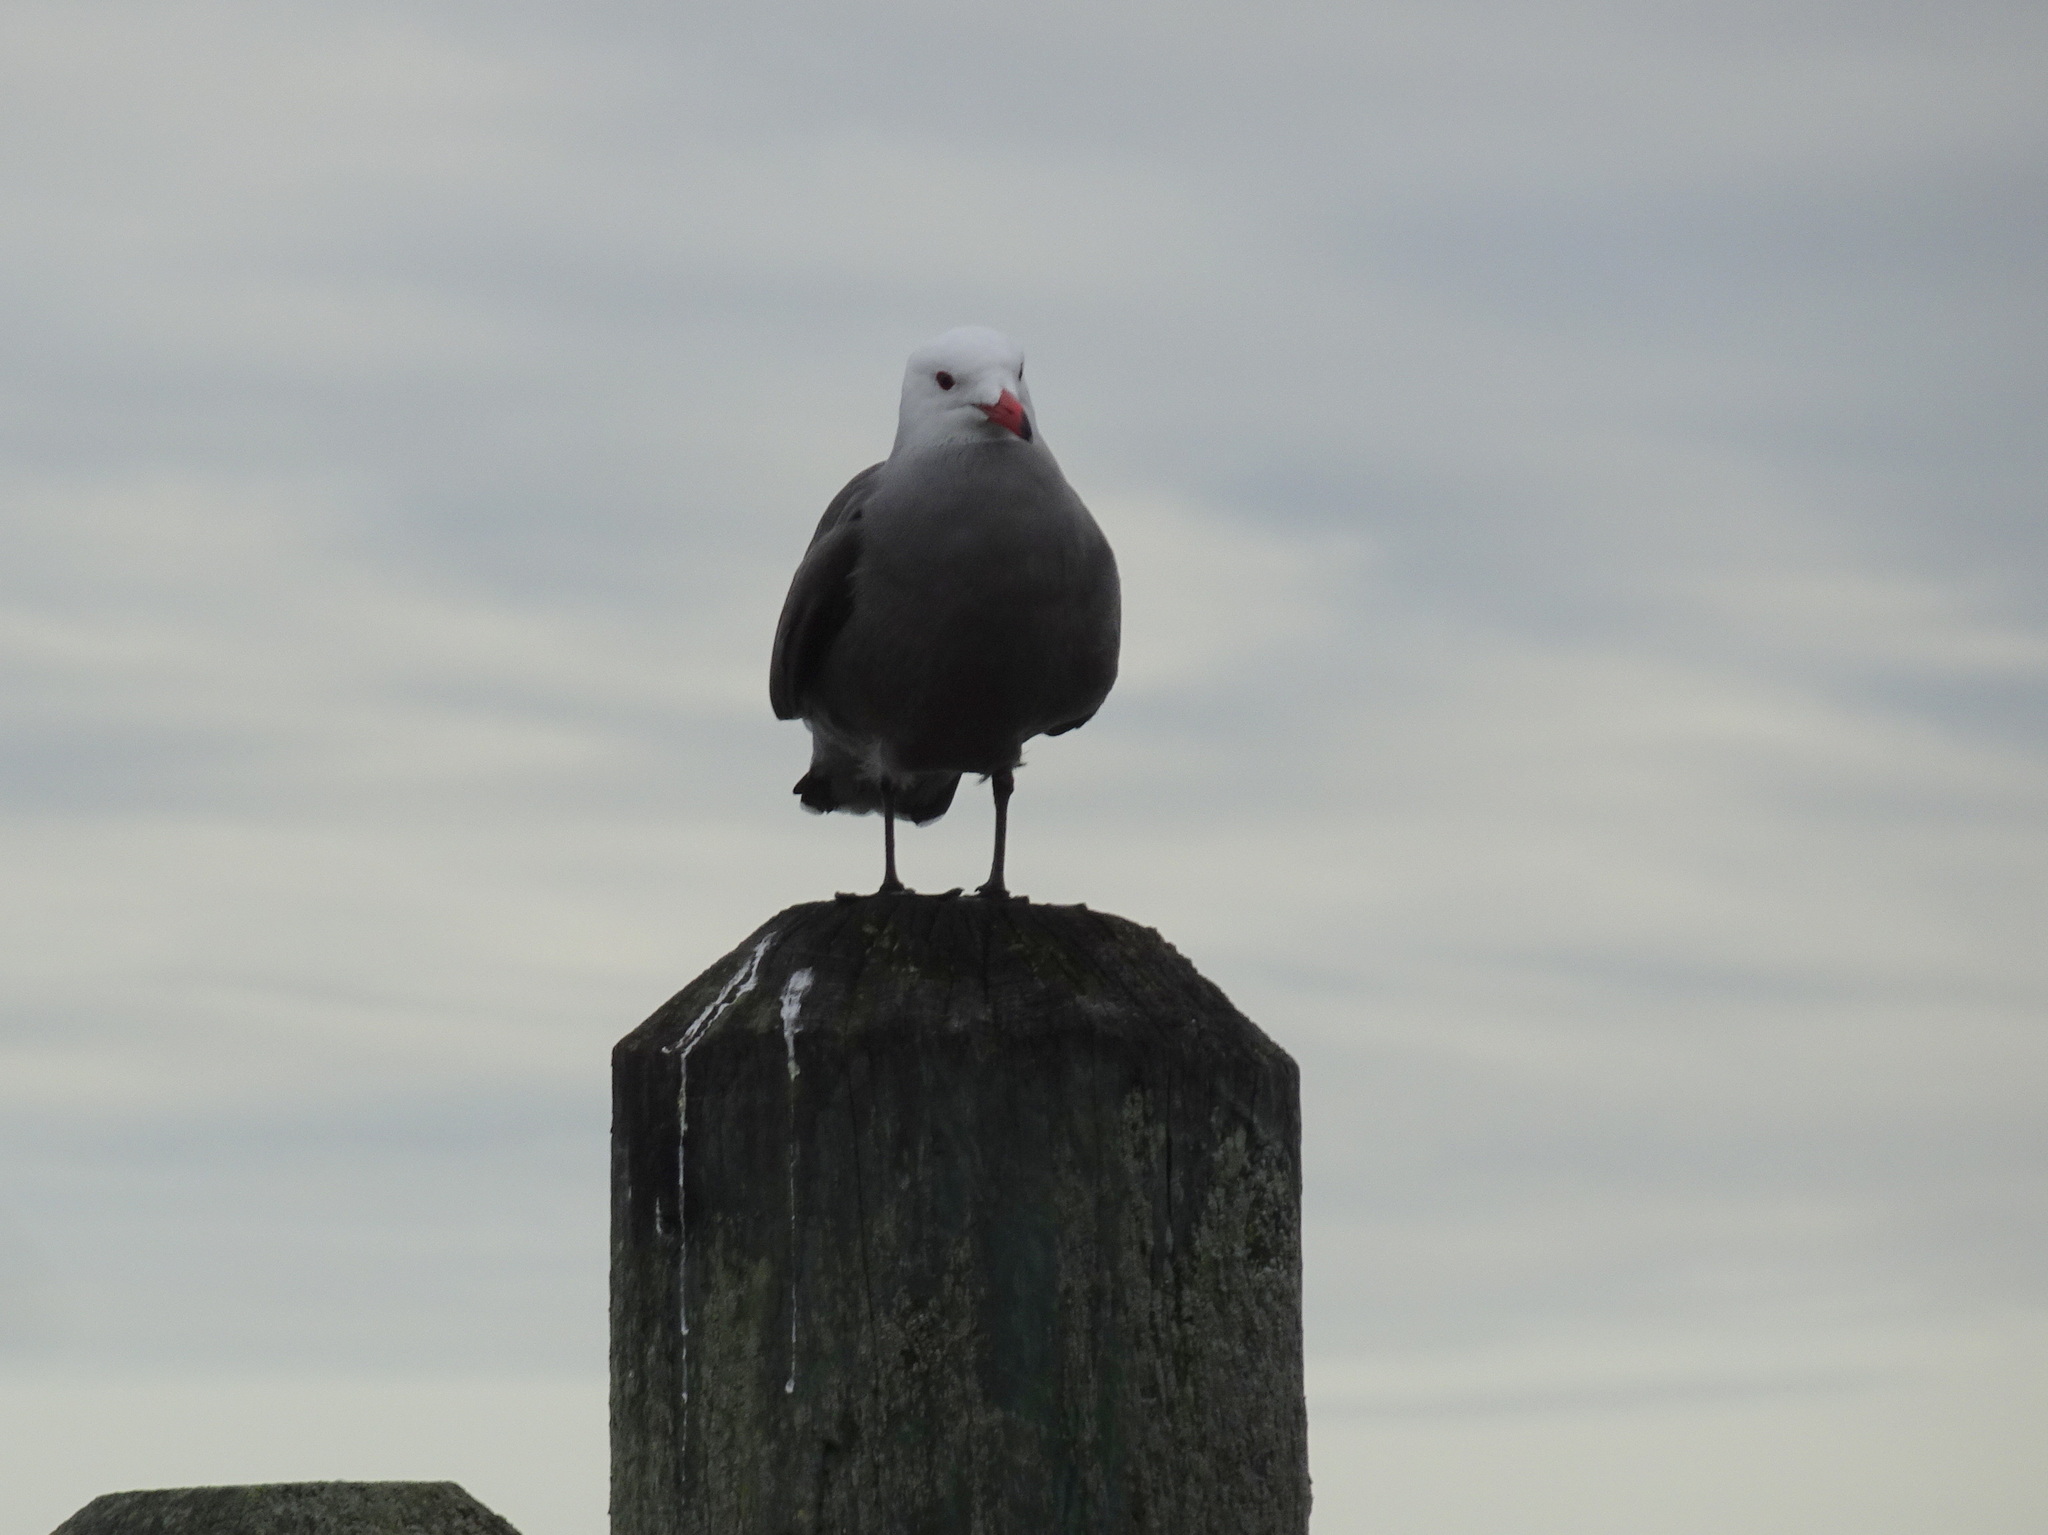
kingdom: Animalia
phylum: Chordata
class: Aves
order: Charadriiformes
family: Laridae
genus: Larus
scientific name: Larus heermanni
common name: Heermann's gull
